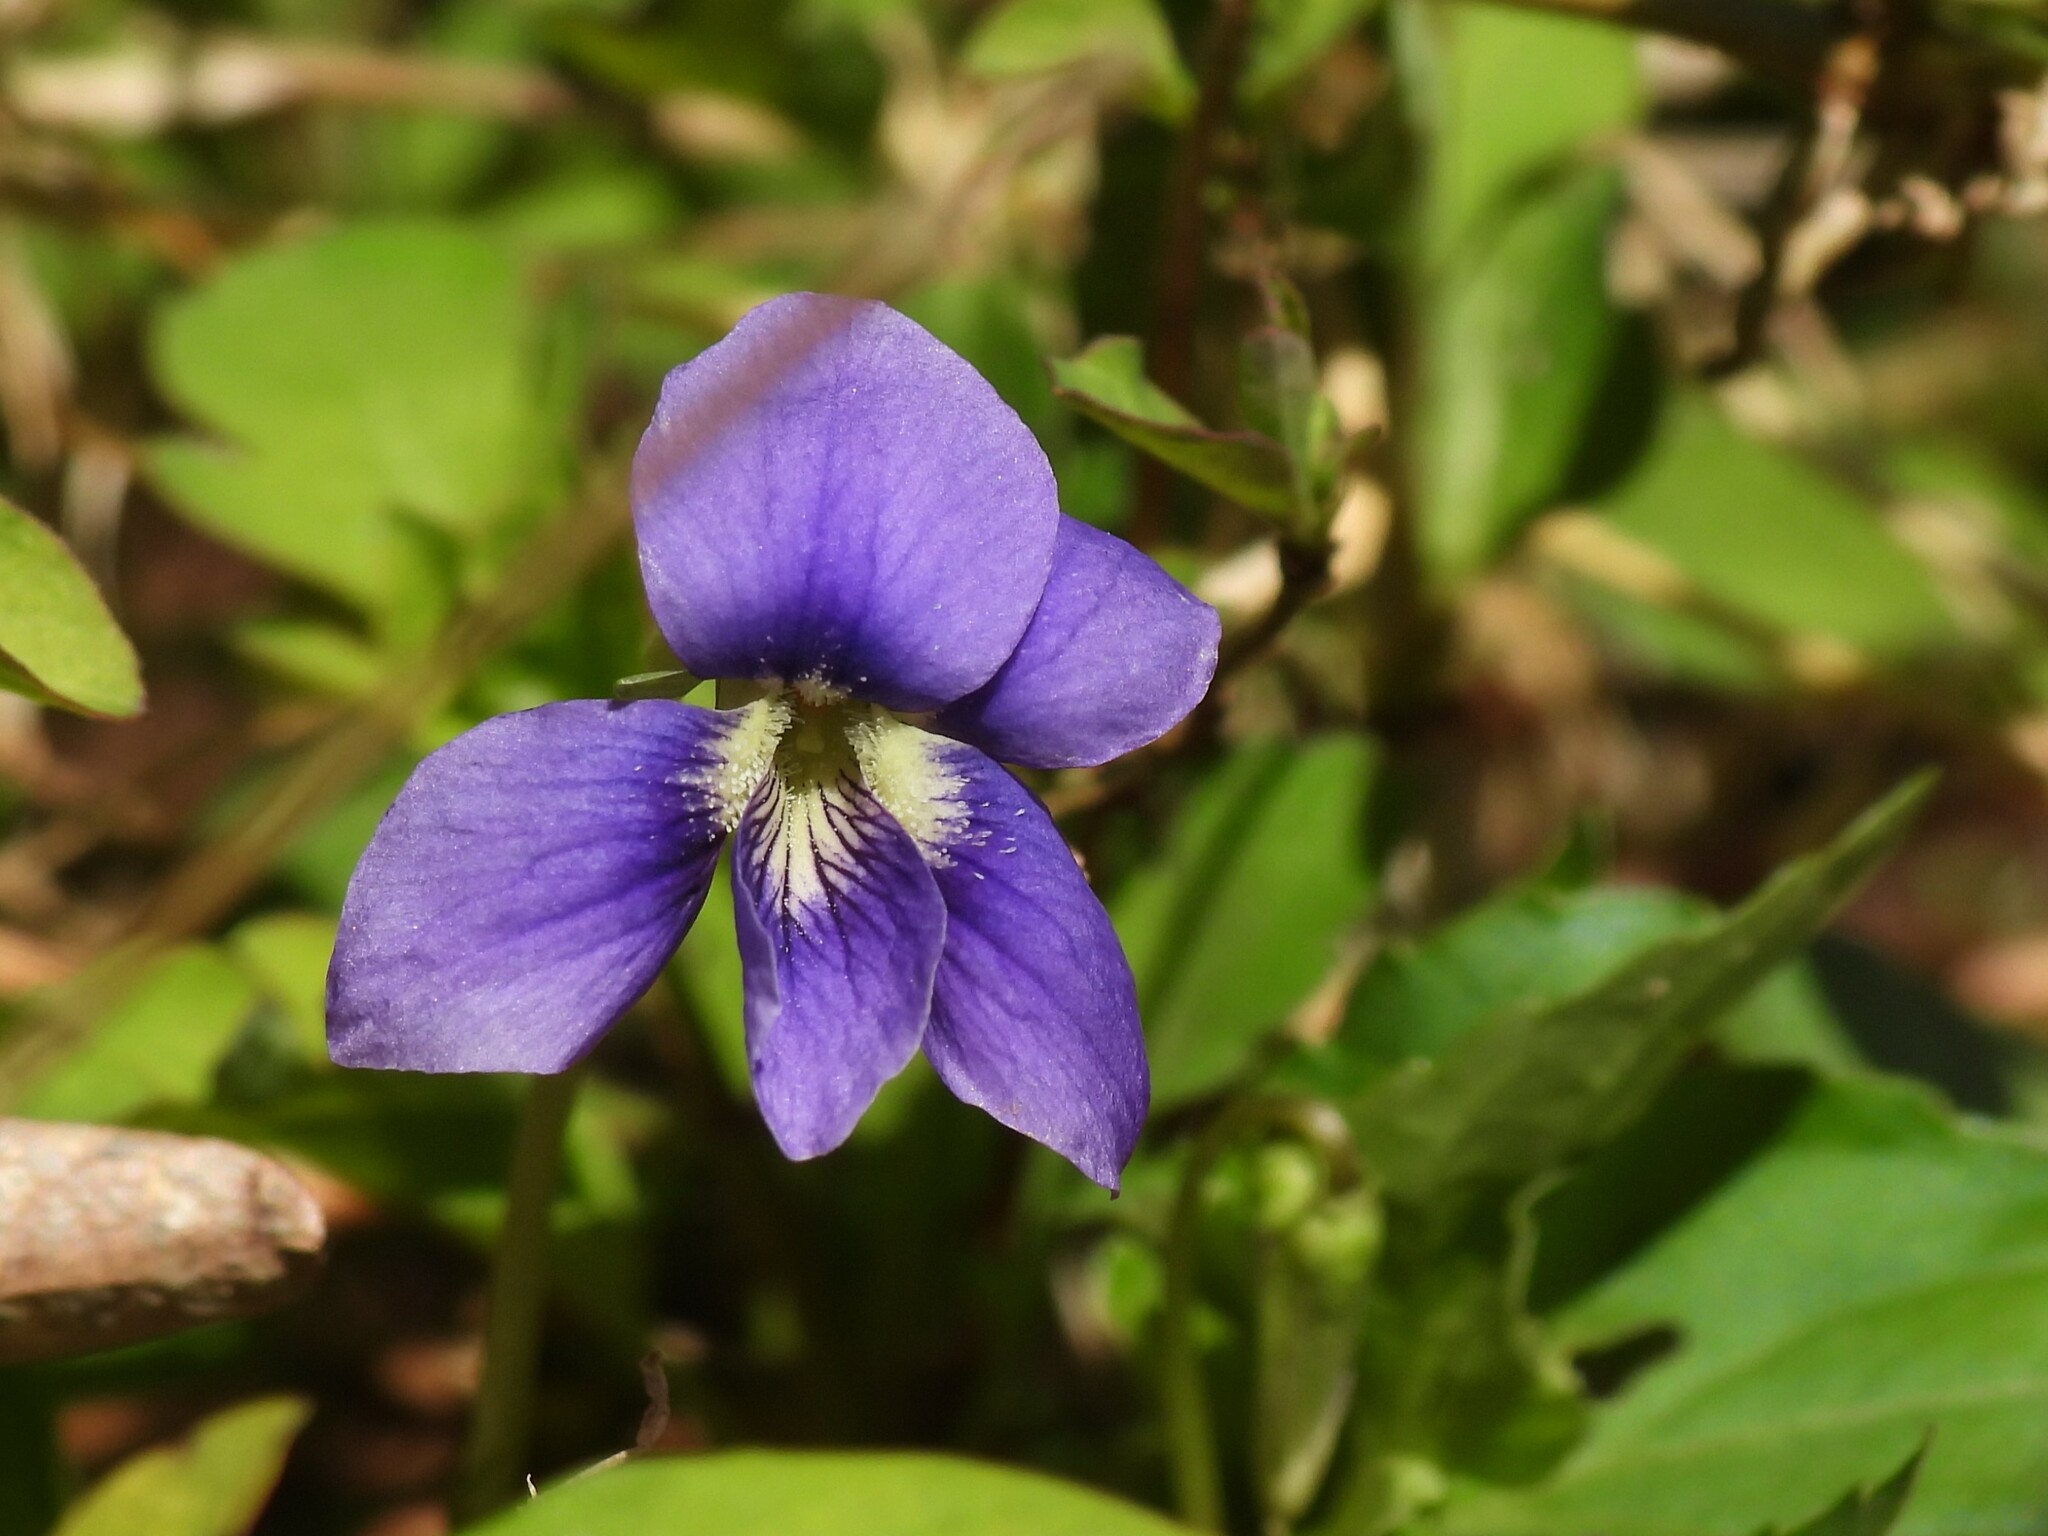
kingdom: Plantae
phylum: Tracheophyta
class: Magnoliopsida
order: Malpighiales
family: Violaceae
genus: Viola
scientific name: Viola sororia
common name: Dooryard violet
